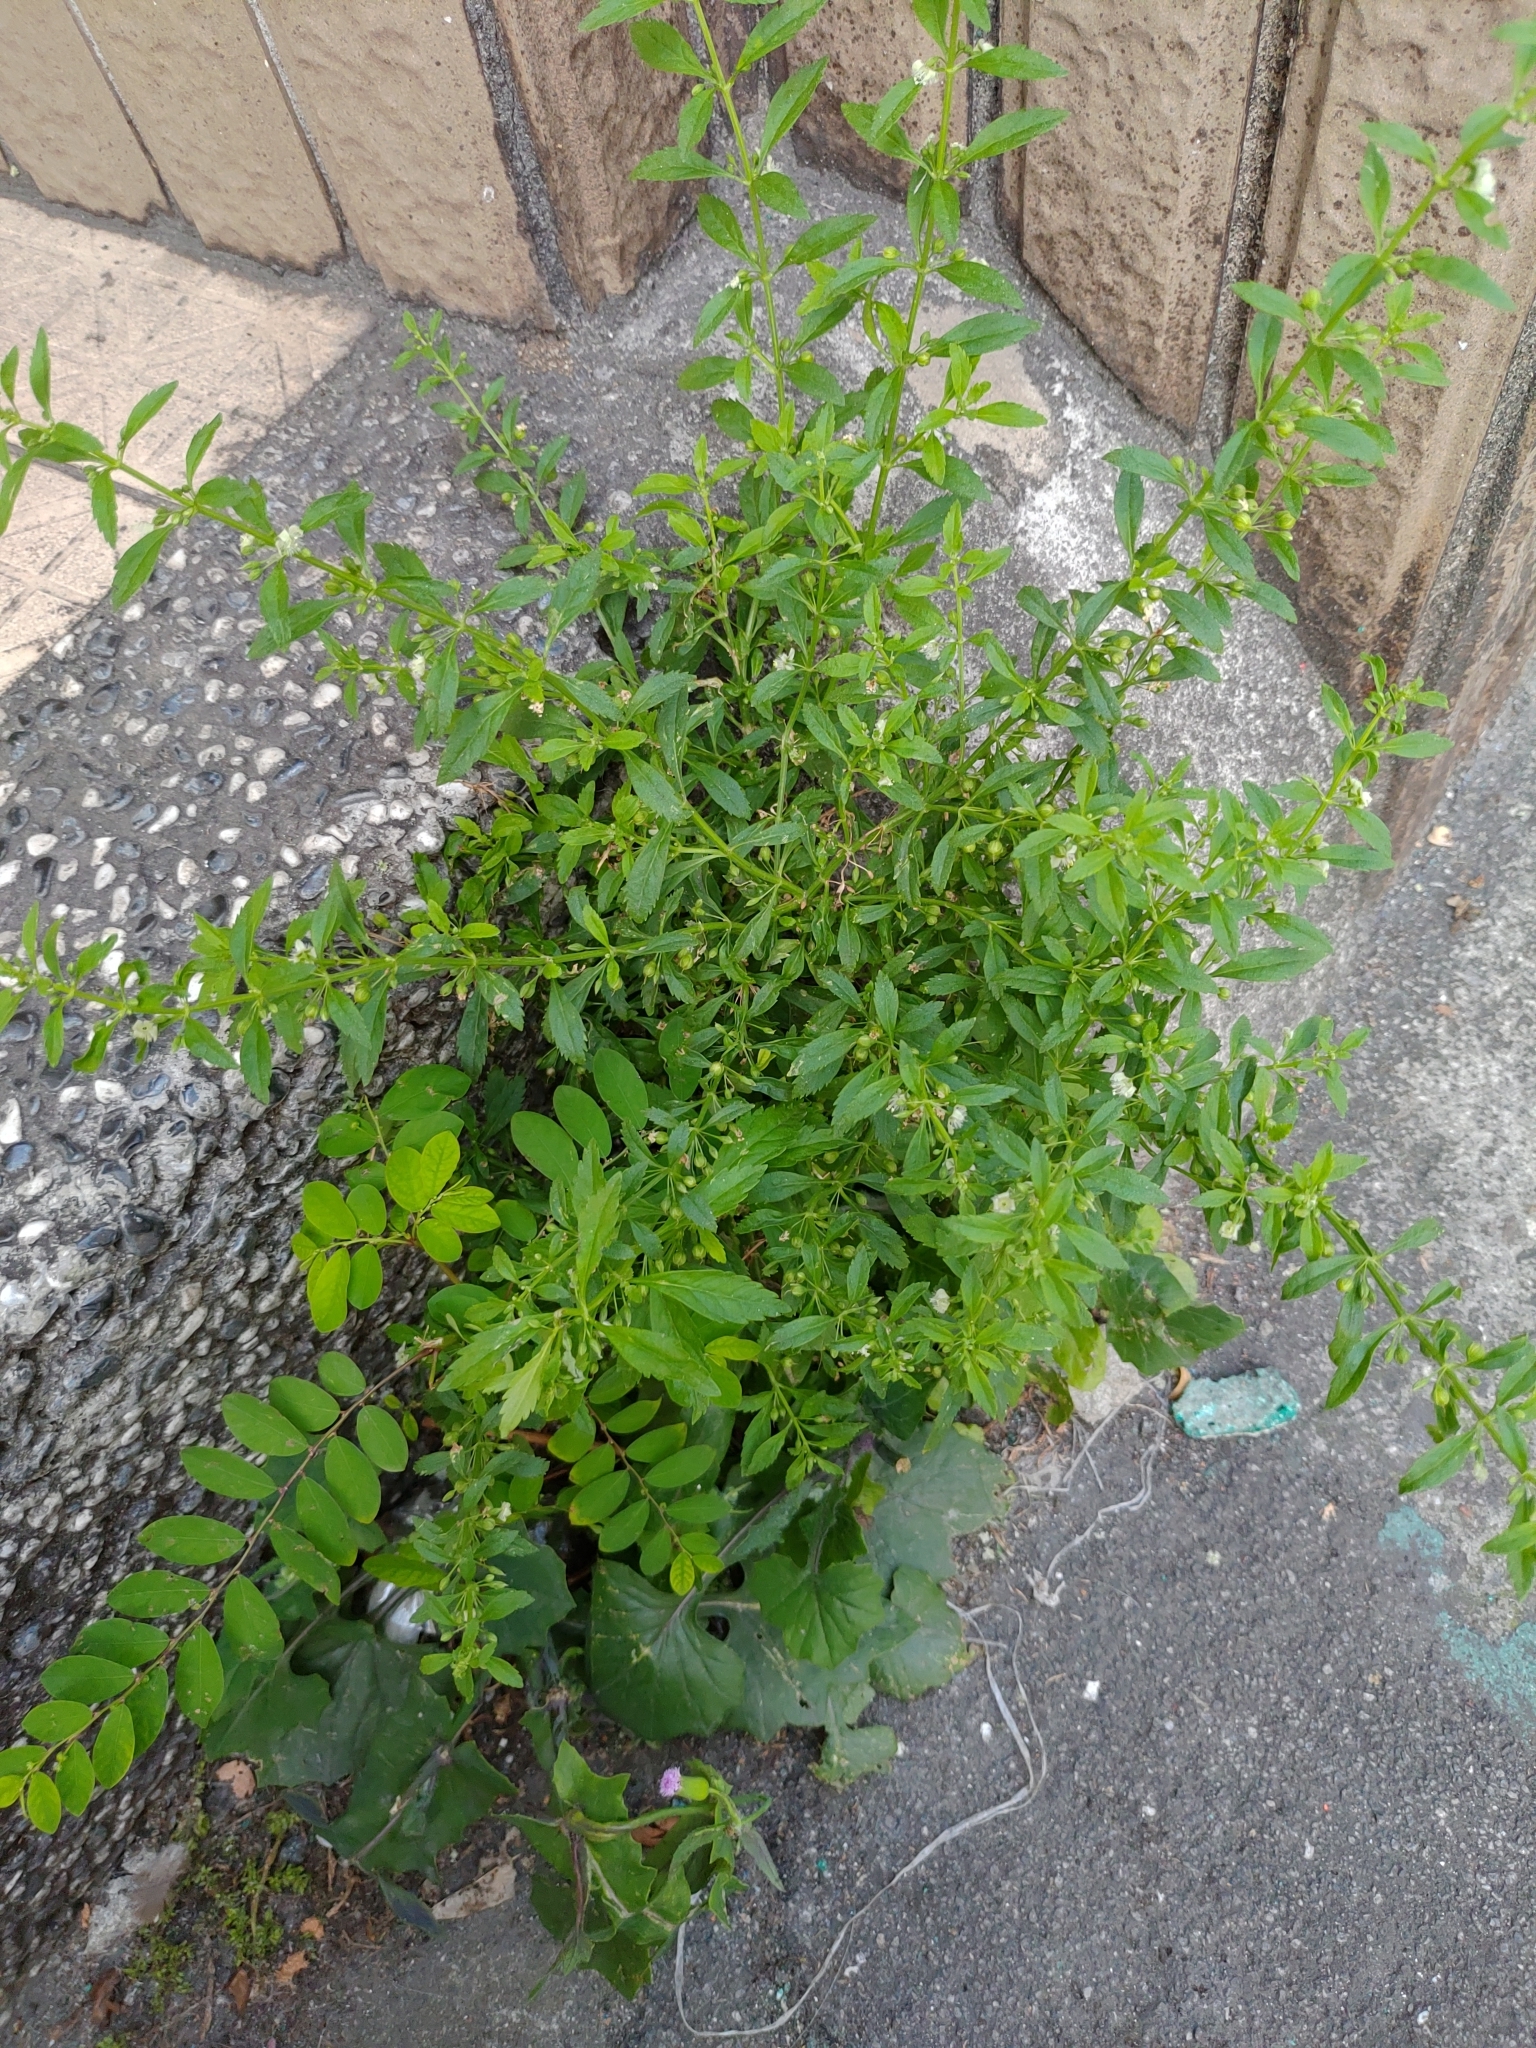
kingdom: Plantae
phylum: Tracheophyta
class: Magnoliopsida
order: Lamiales
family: Plantaginaceae
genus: Scoparia
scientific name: Scoparia dulcis
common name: Scoparia-weed
